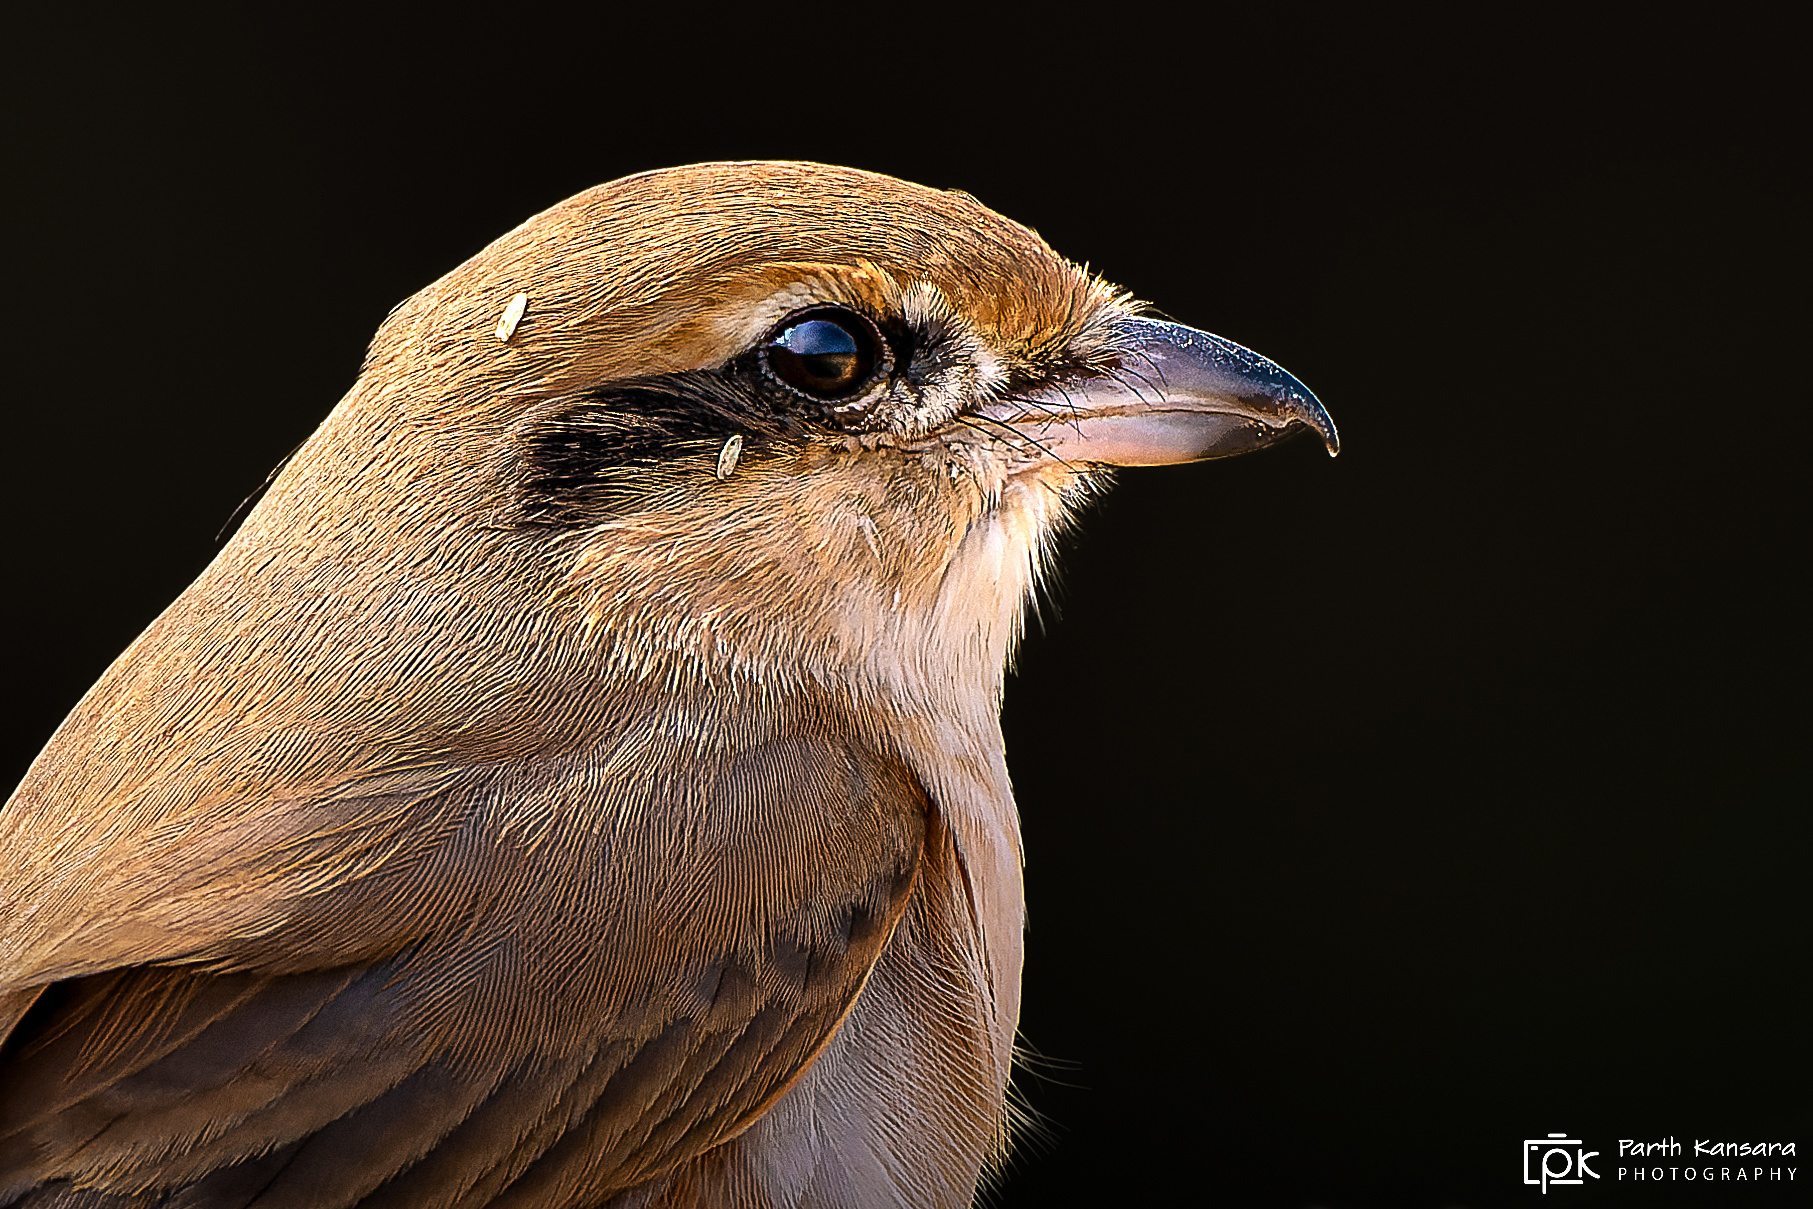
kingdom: Animalia
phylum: Chordata
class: Aves
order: Passeriformes
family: Laniidae
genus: Lanius
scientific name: Lanius isabellinus
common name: Isabelline shrike
